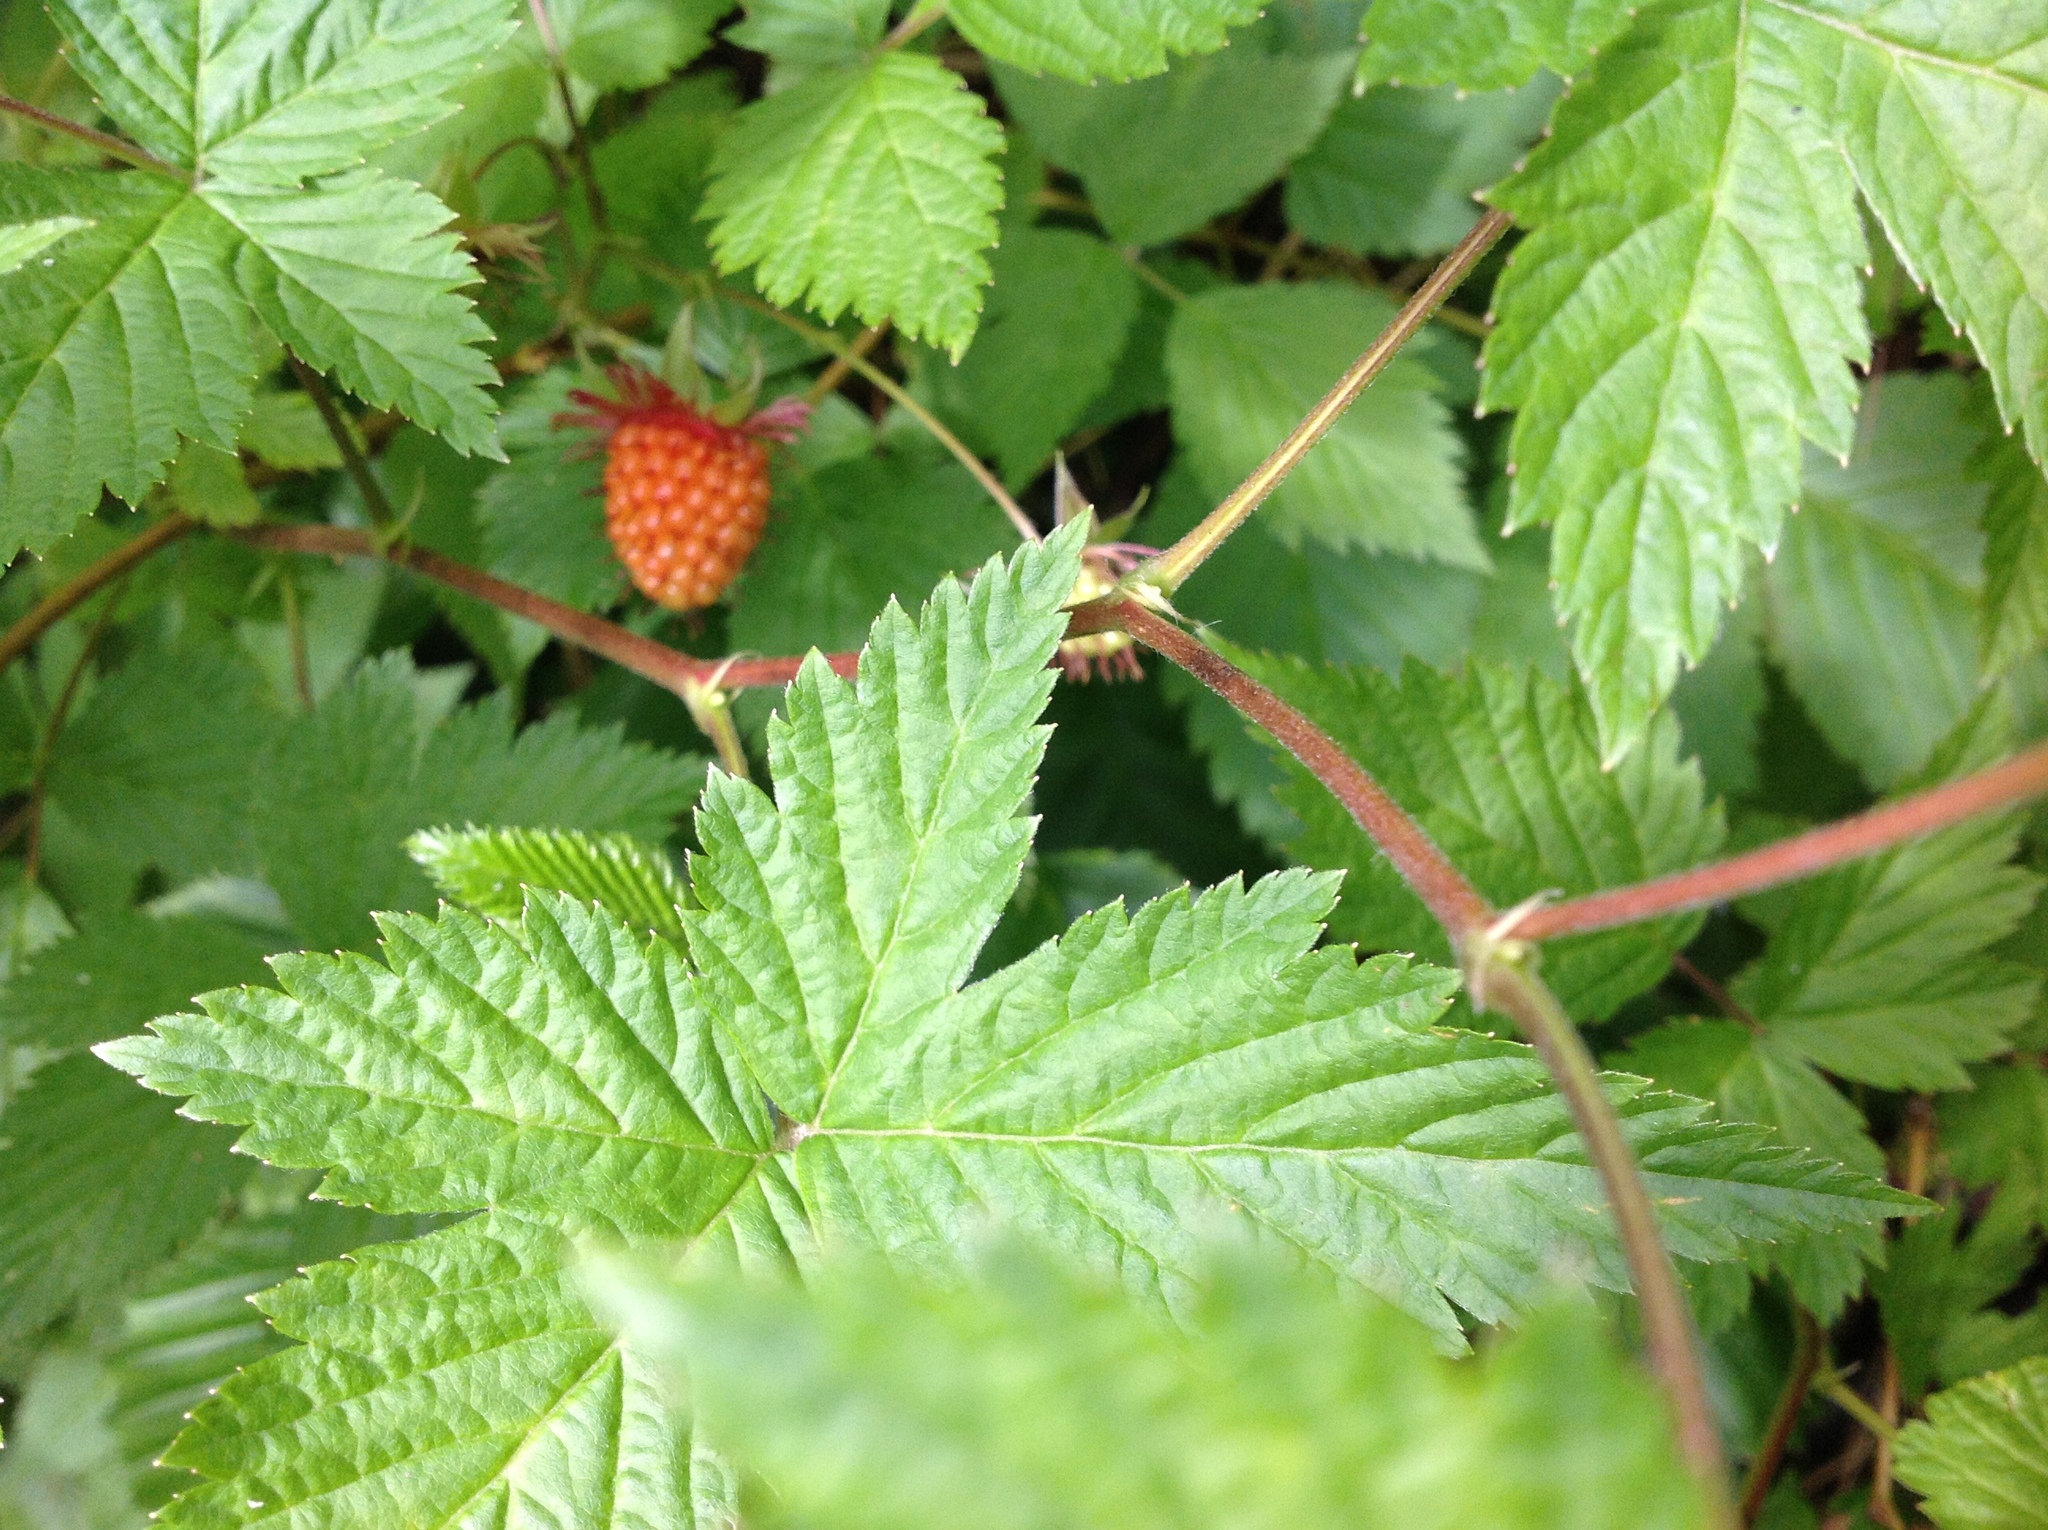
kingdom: Plantae
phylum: Tracheophyta
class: Magnoliopsida
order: Rosales
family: Rosaceae
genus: Rubus
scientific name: Rubus spectabilis
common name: Salmonberry
